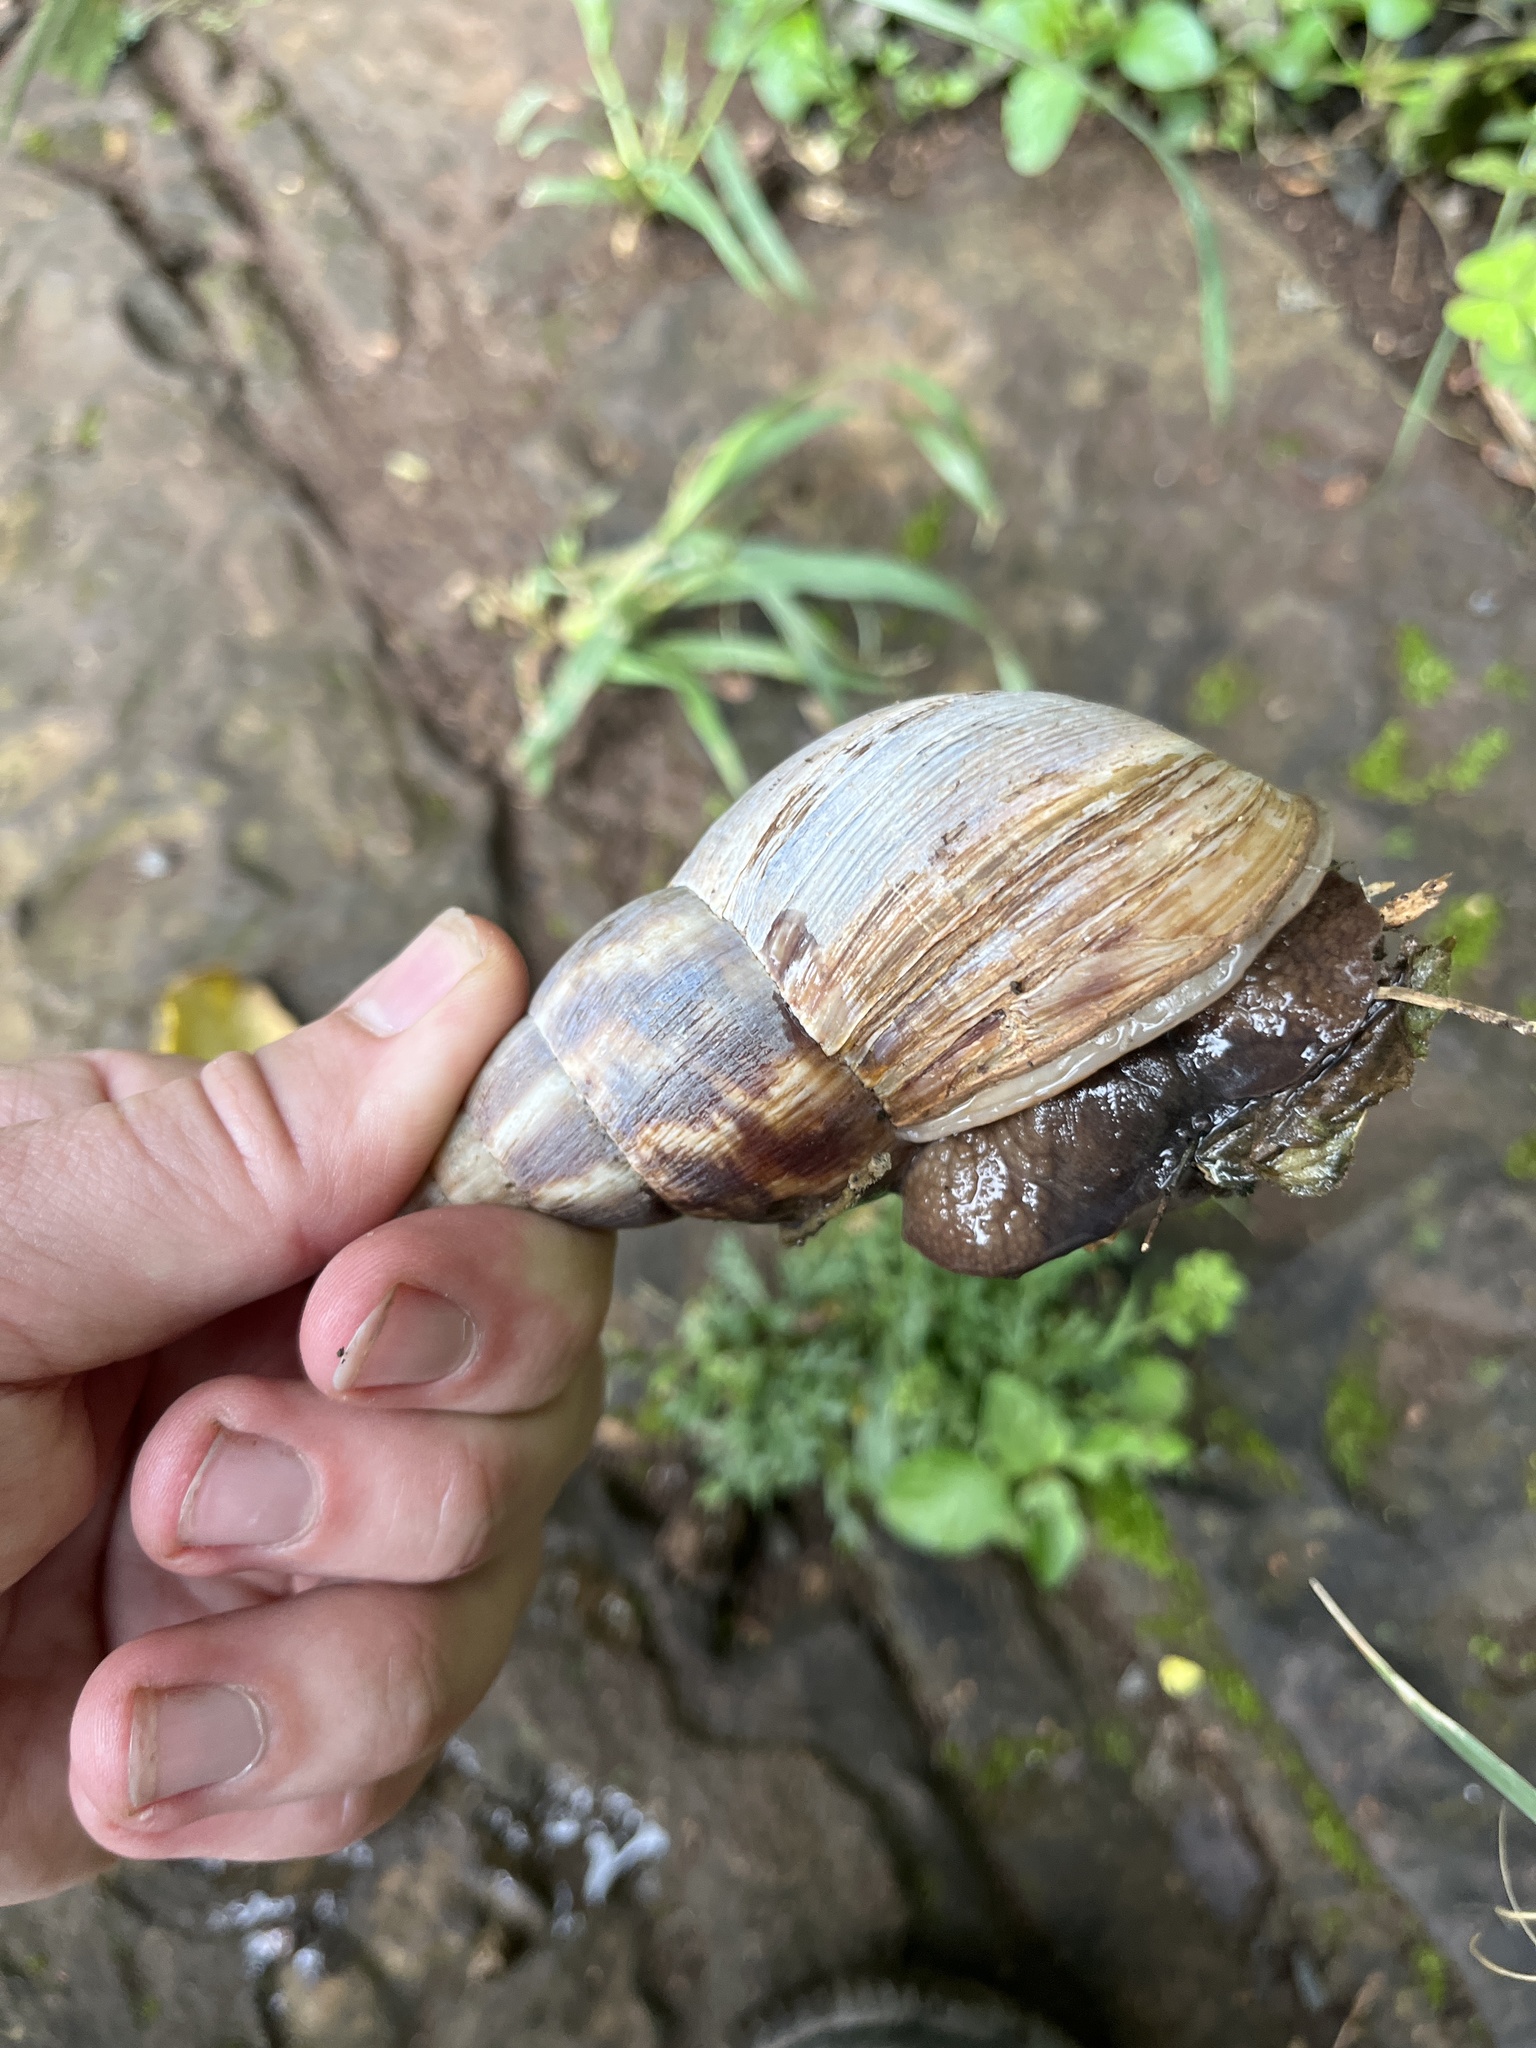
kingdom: Animalia
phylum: Mollusca
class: Gastropoda
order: Stylommatophora
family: Achatinidae
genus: Lissachatina
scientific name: Lissachatina albopicta
